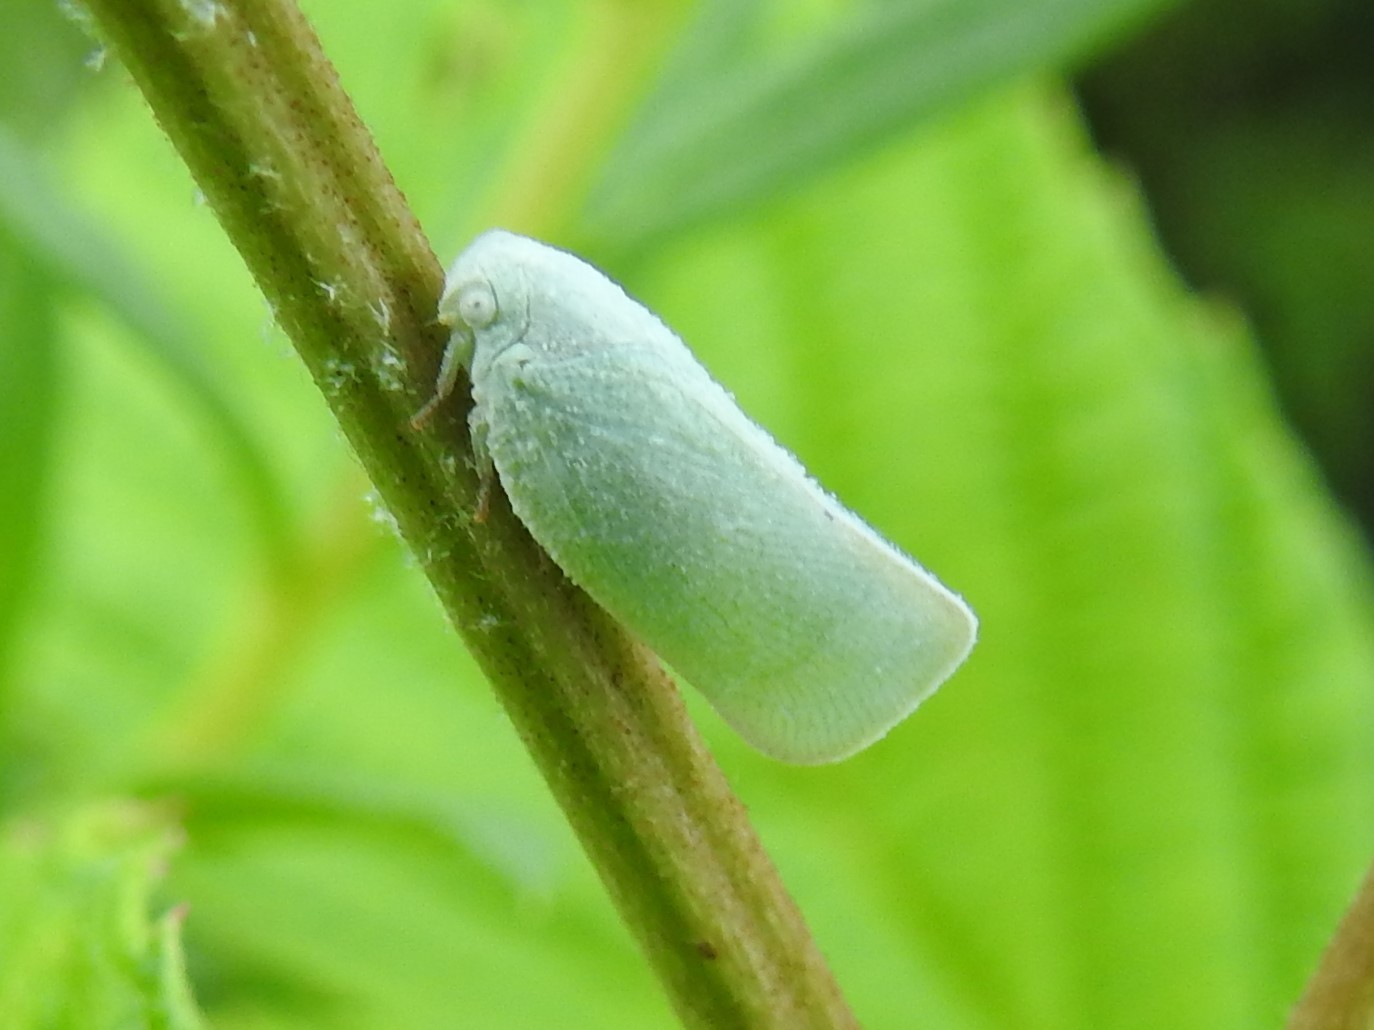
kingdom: Animalia
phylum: Arthropoda
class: Insecta
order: Hemiptera
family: Flatidae
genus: Flatormenis
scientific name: Flatormenis proxima
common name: Northern flatid planthopper
